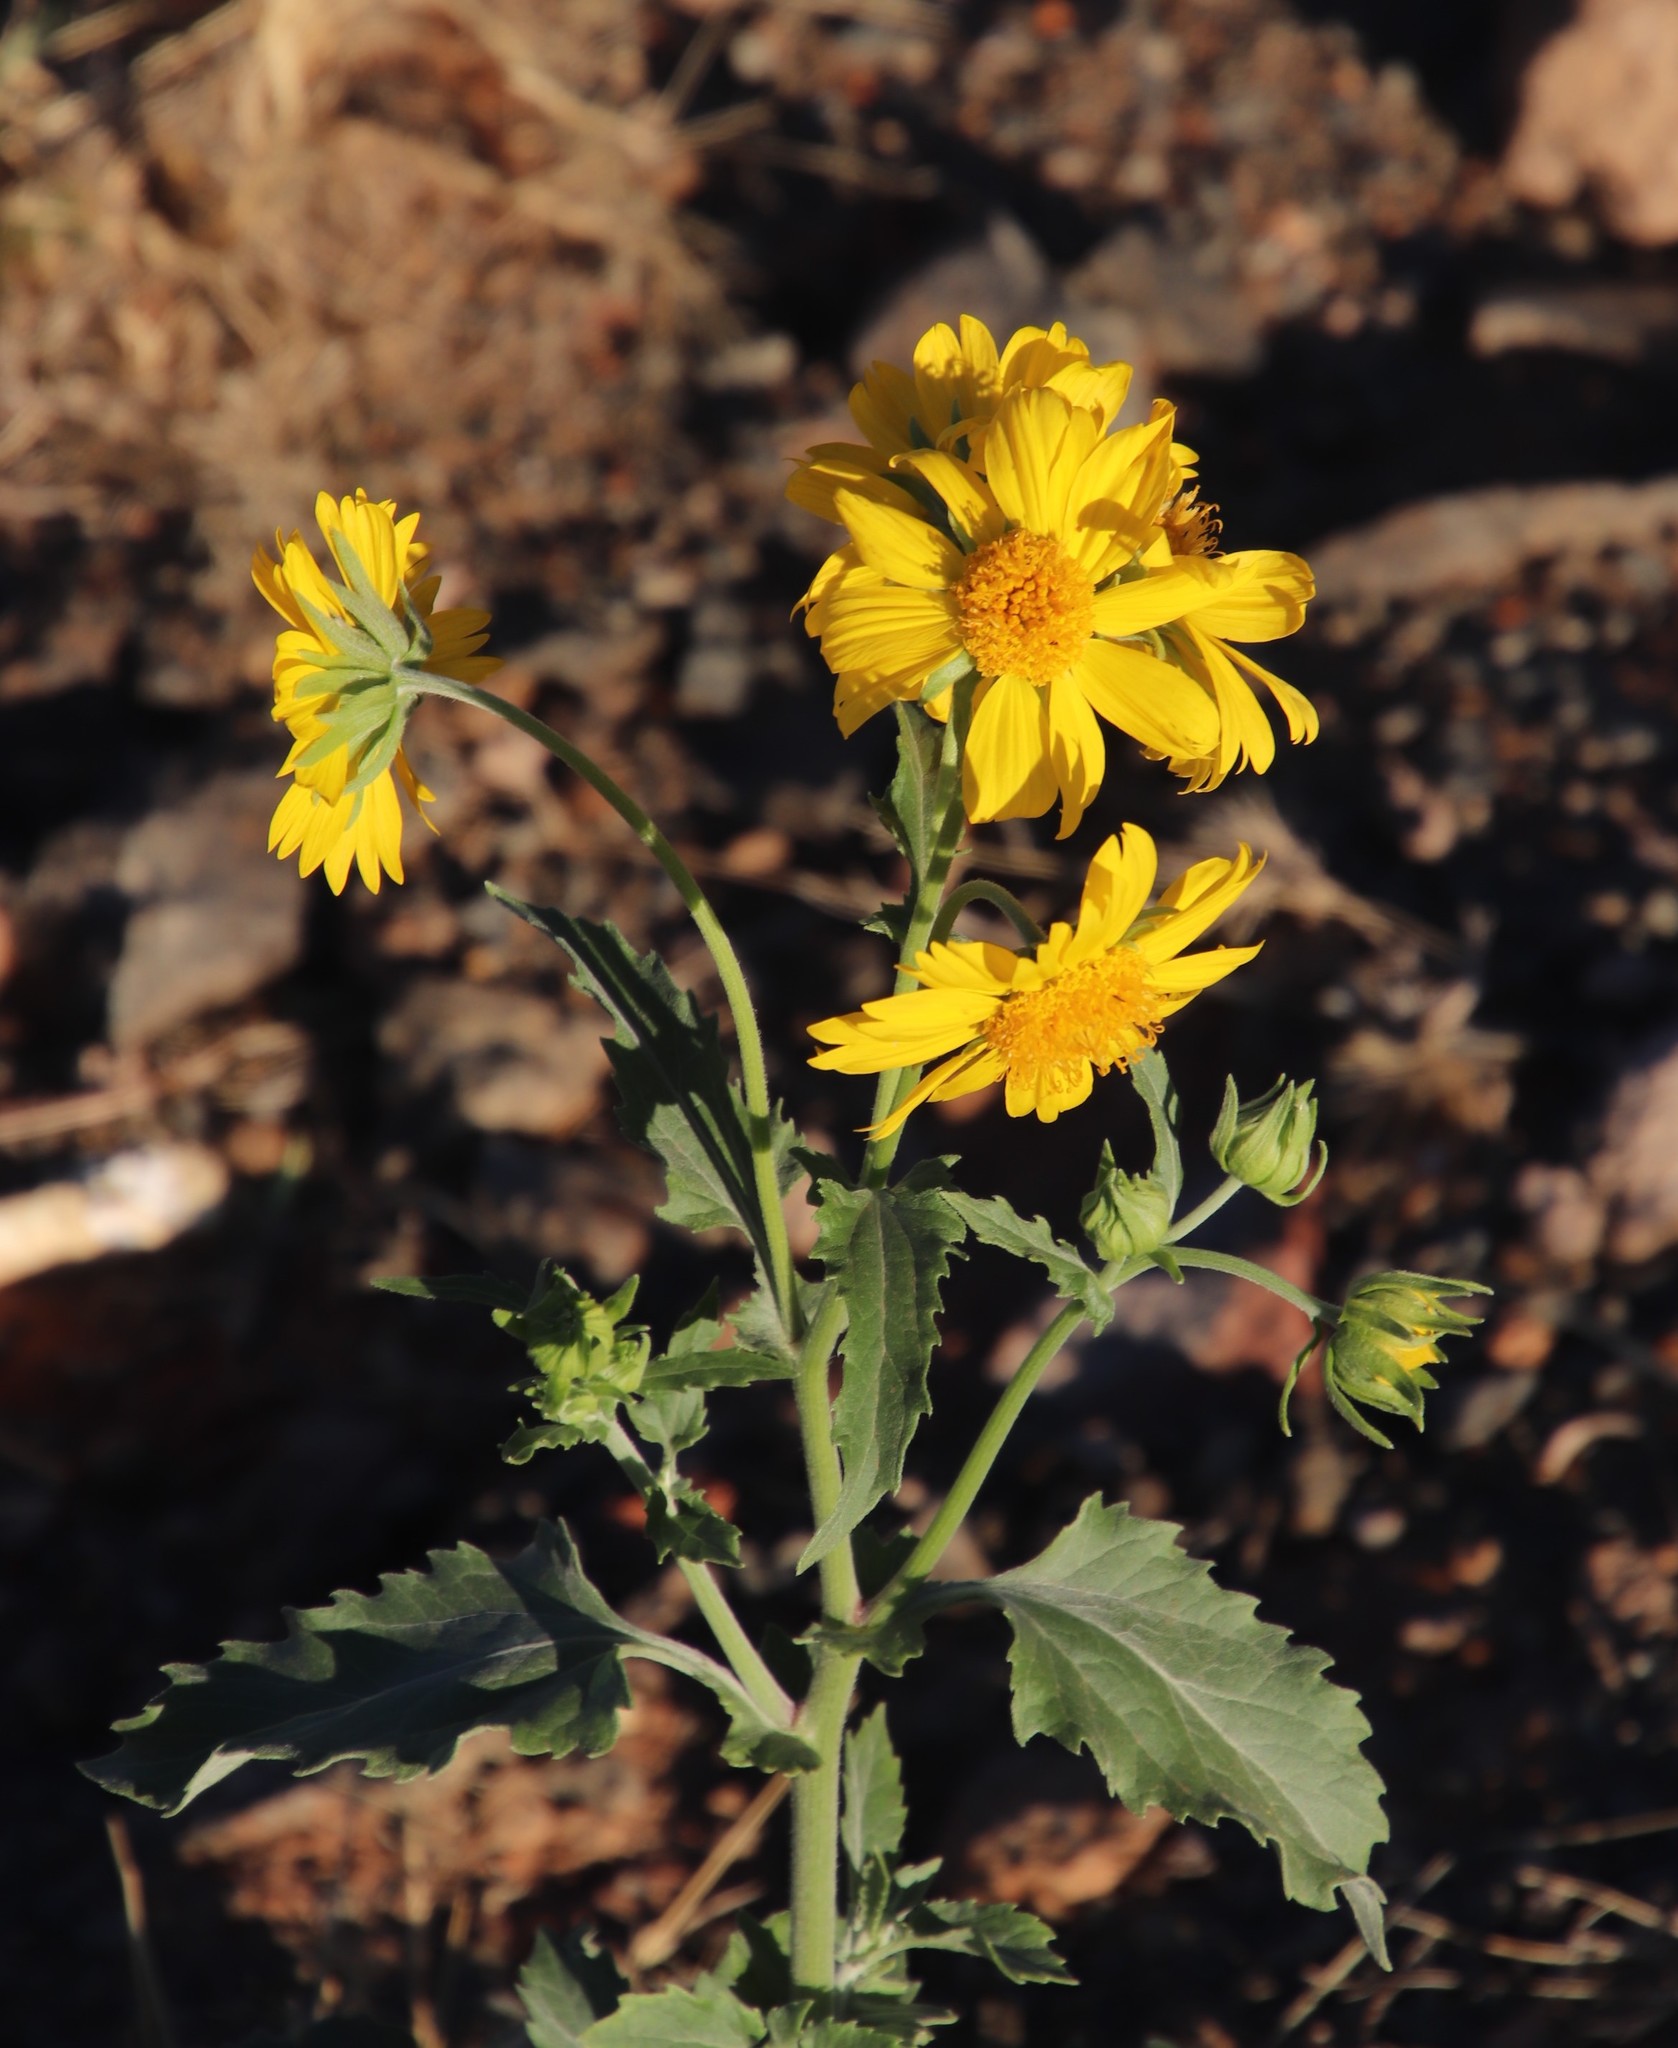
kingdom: Plantae
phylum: Tracheophyta
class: Magnoliopsida
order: Asterales
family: Asteraceae
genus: Verbesina
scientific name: Verbesina encelioides
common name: Golden crownbeard
